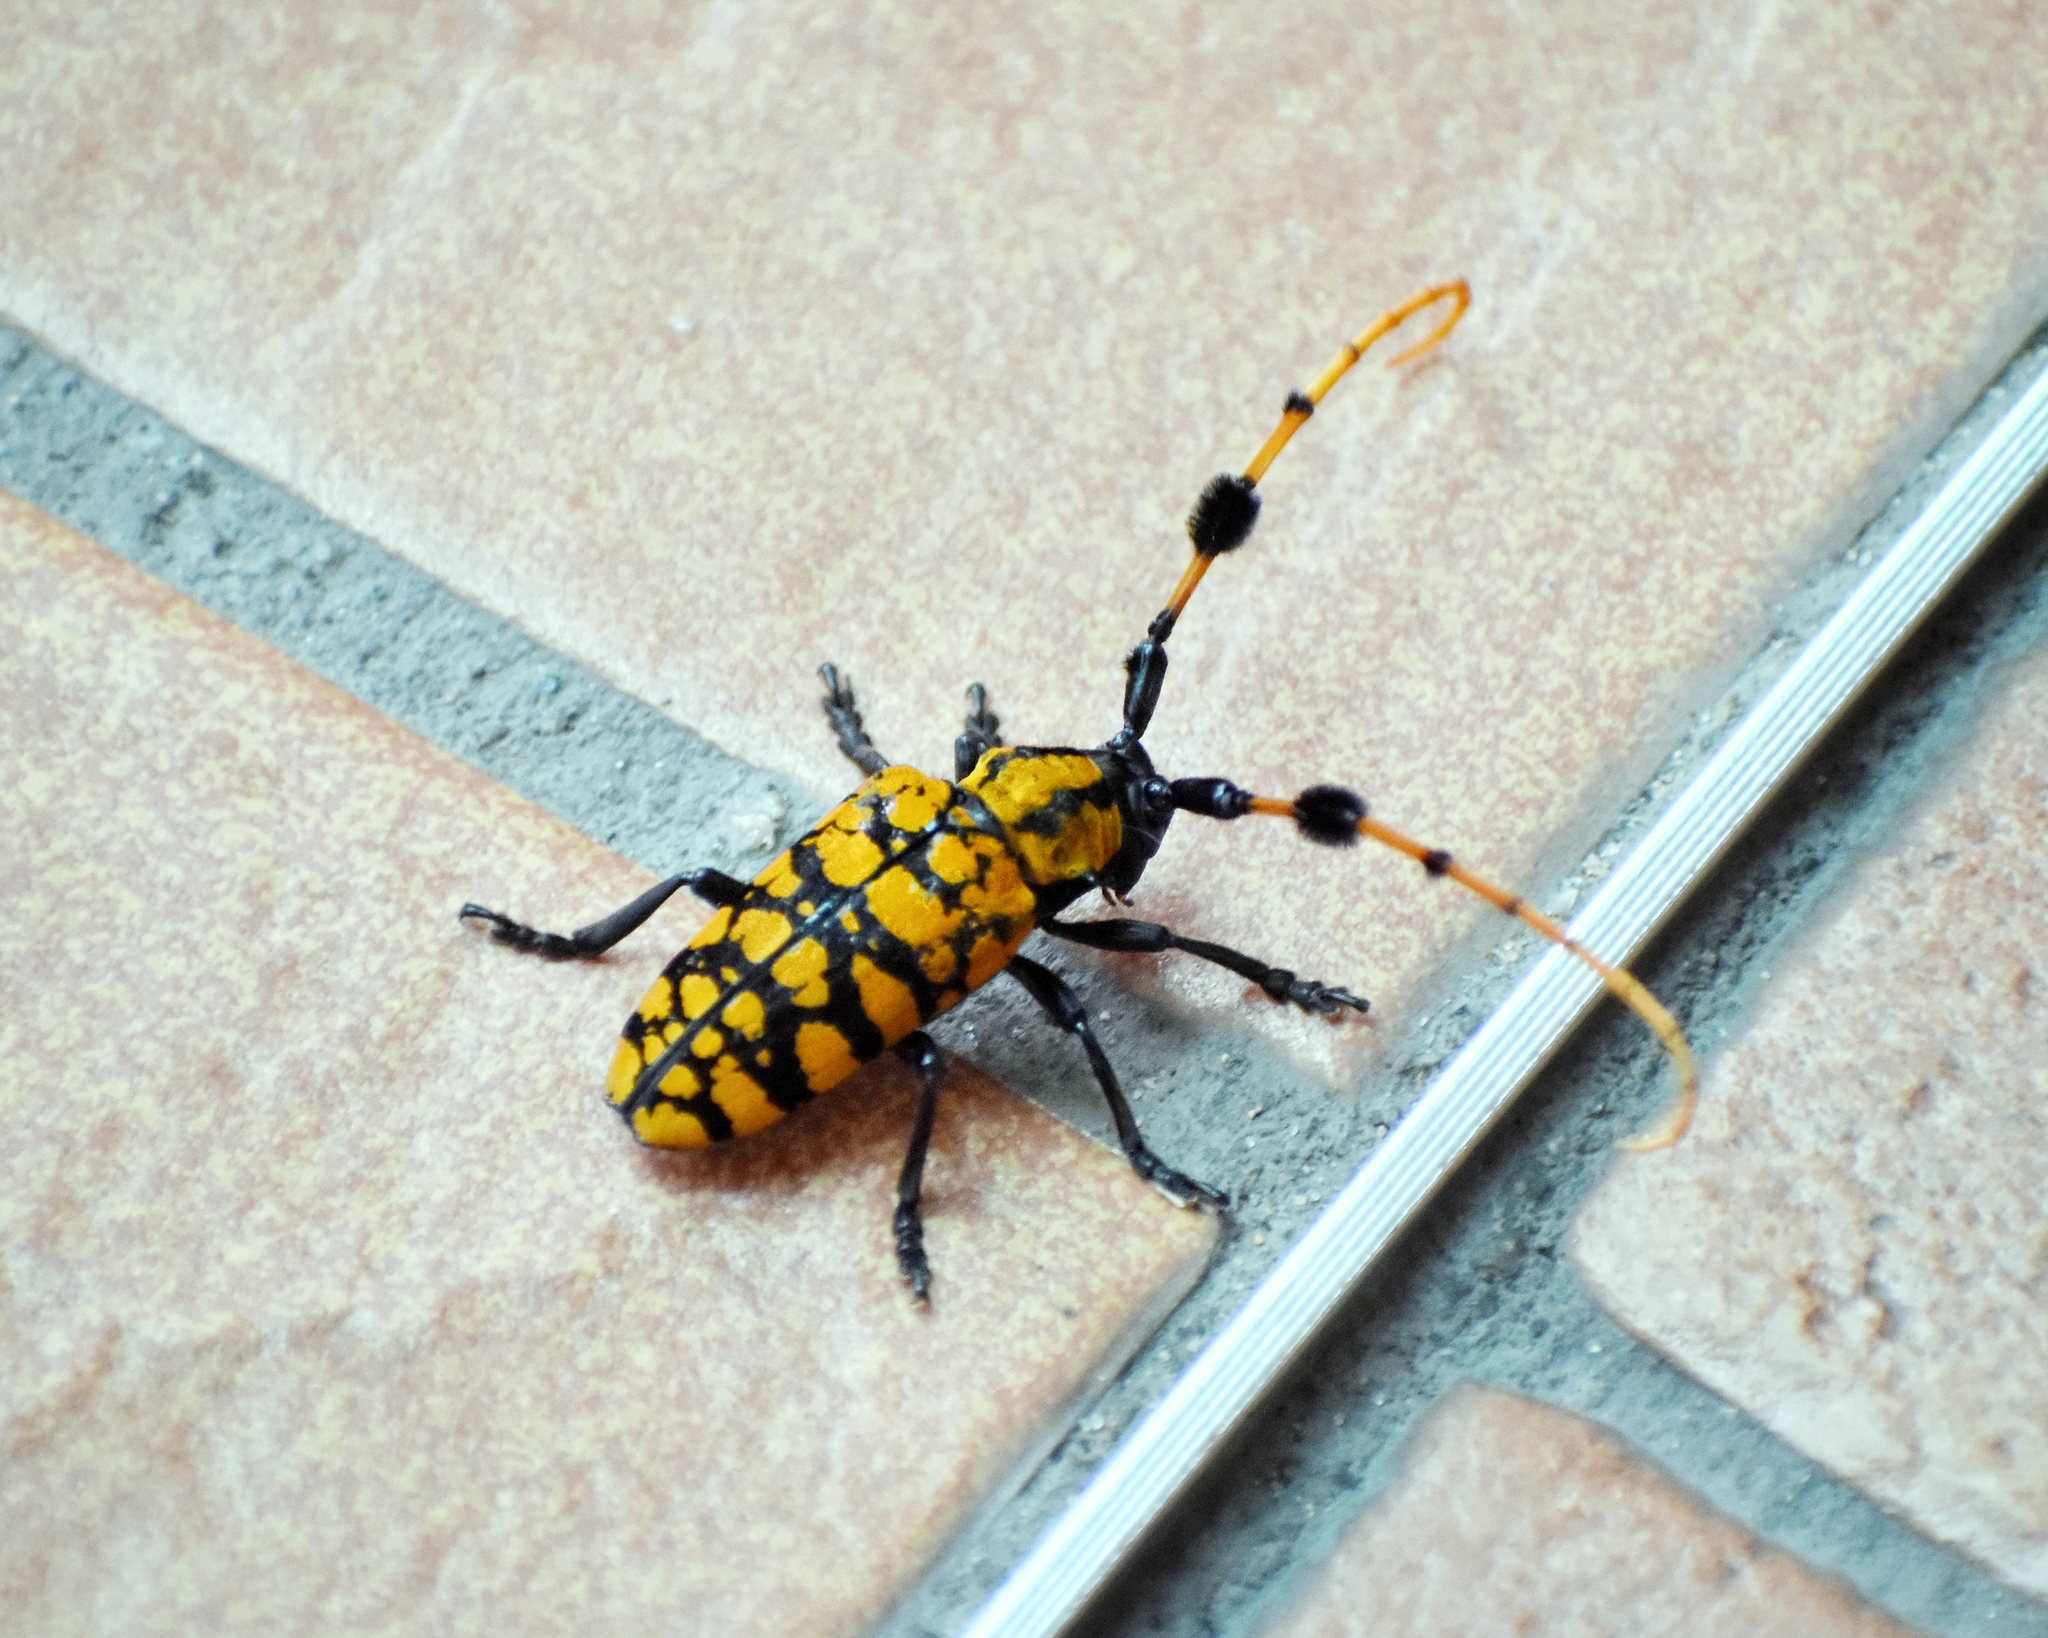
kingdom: Animalia
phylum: Arthropoda
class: Insecta
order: Coleoptera
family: Cerambycidae
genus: Aristobia
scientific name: Aristobia reticulator
